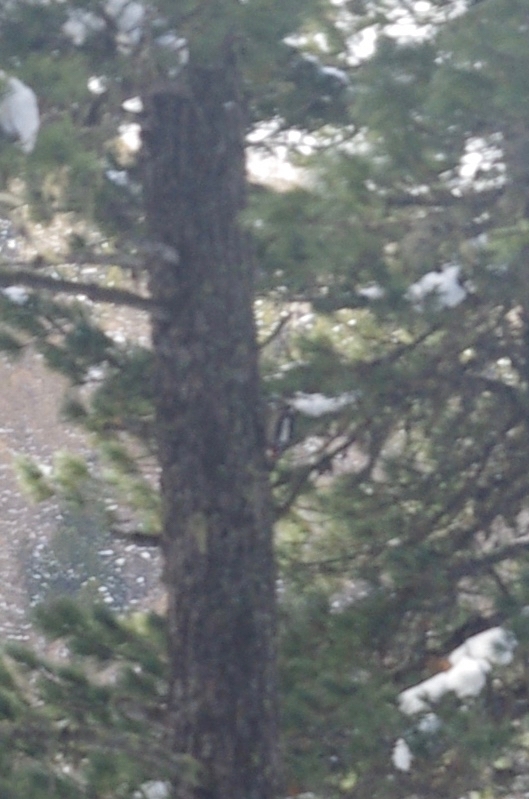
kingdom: Animalia
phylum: Chordata
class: Aves
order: Piciformes
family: Picidae
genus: Dendrocopos
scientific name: Dendrocopos major
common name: Great spotted woodpecker
